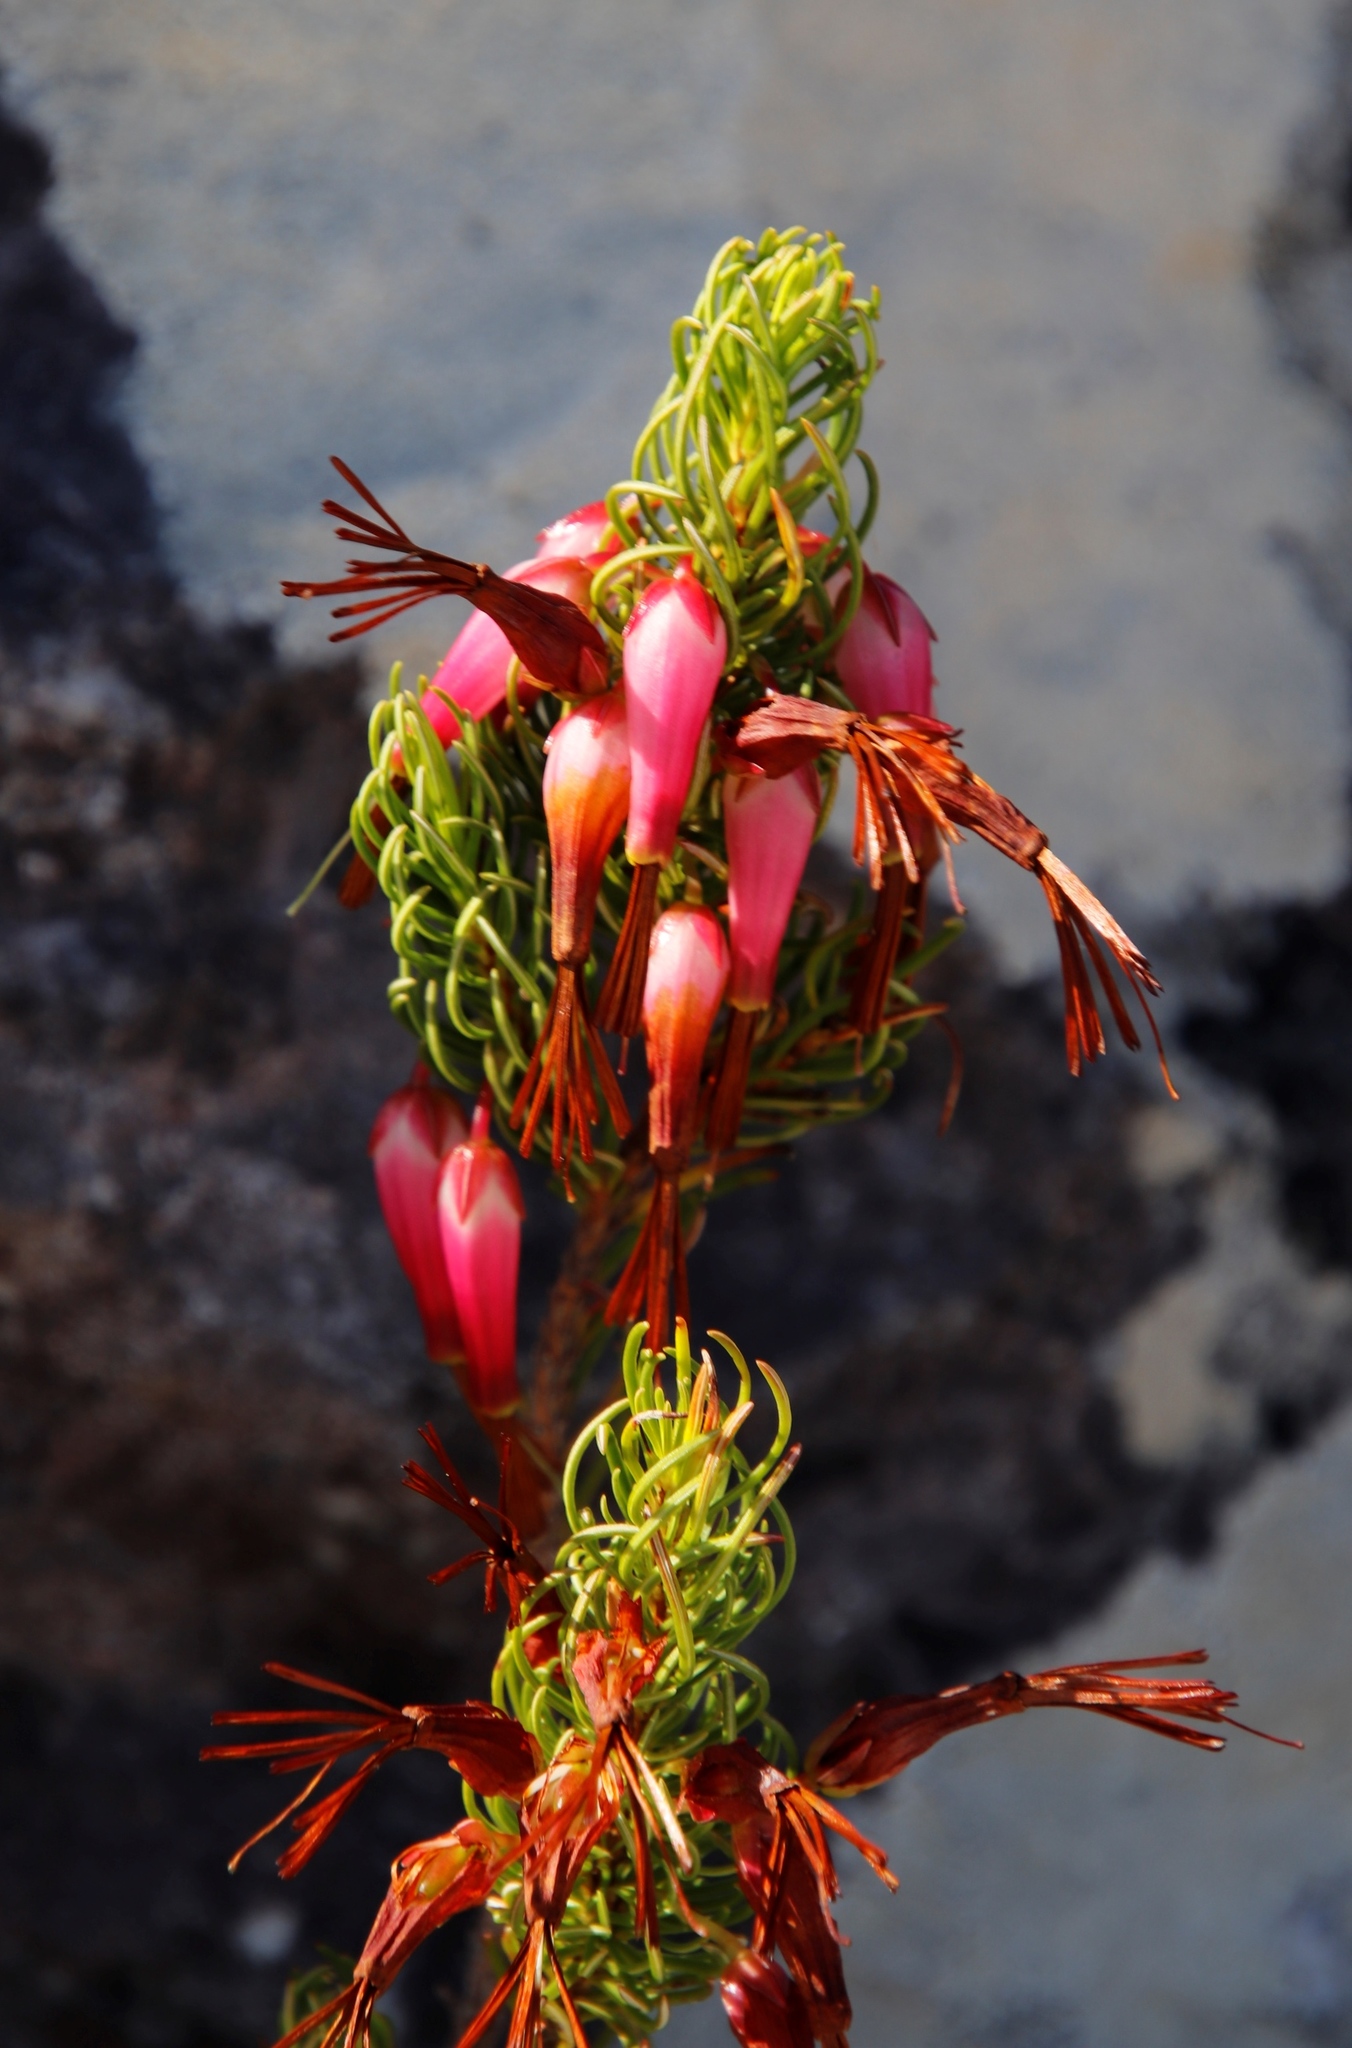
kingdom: Plantae
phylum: Tracheophyta
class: Magnoliopsida
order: Ericales
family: Ericaceae
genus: Erica
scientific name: Erica plukenetii
